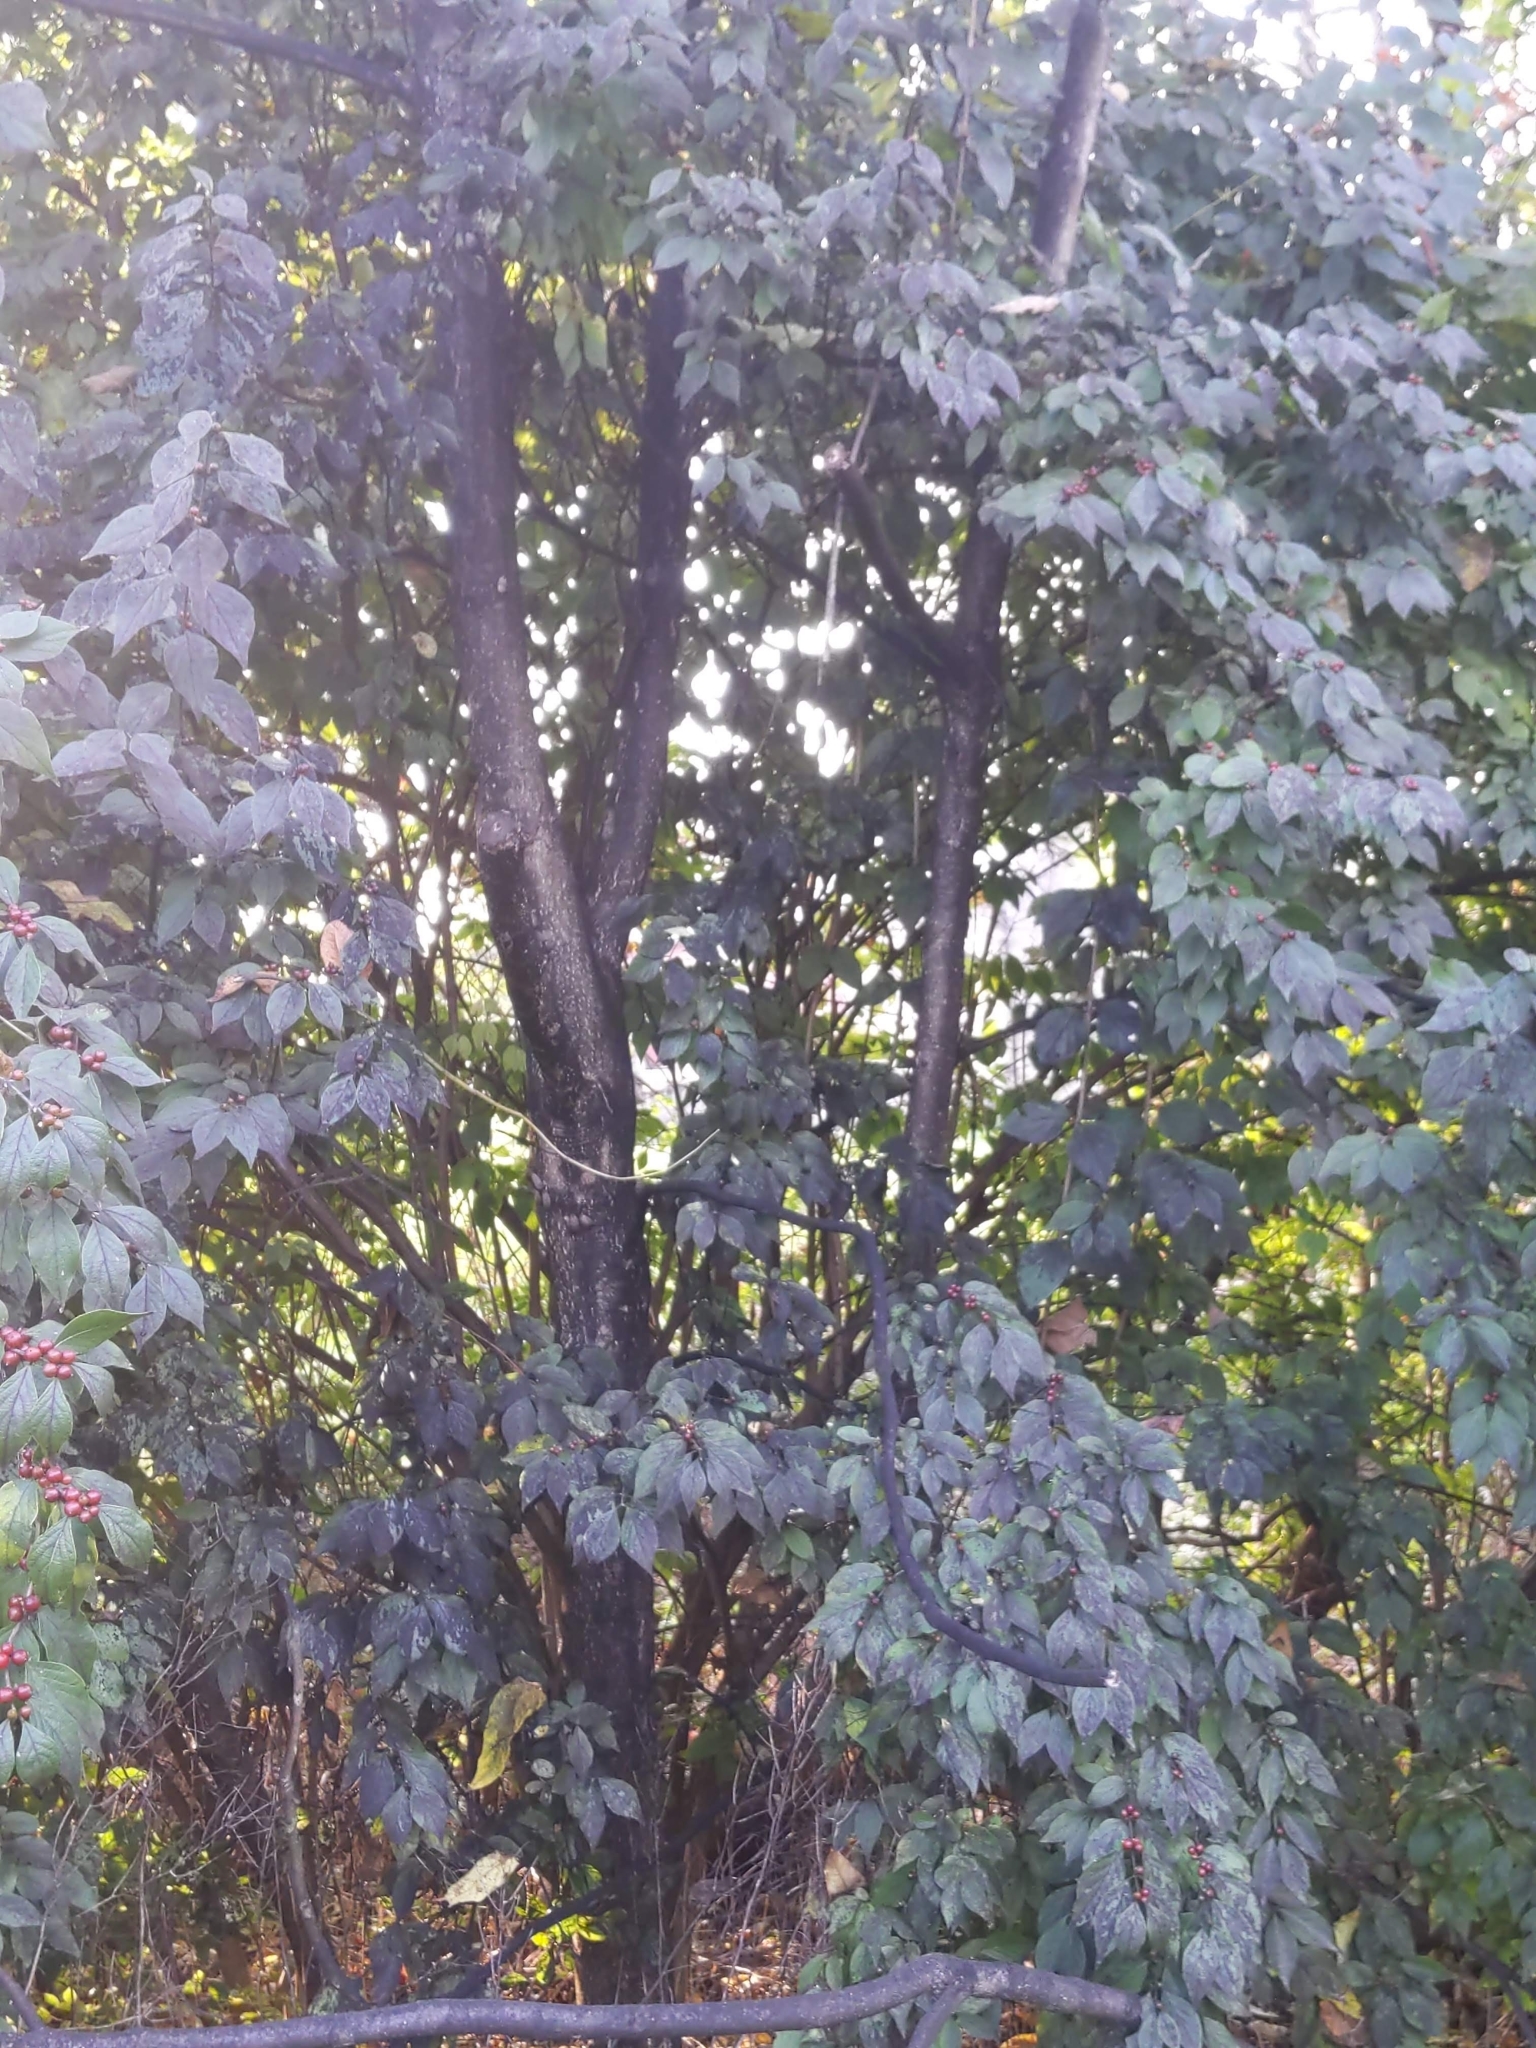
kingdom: Animalia
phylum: Arthropoda
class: Insecta
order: Hemiptera
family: Fulgoridae
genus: Lycorma
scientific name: Lycorma delicatula
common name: Spotted lanternfly
